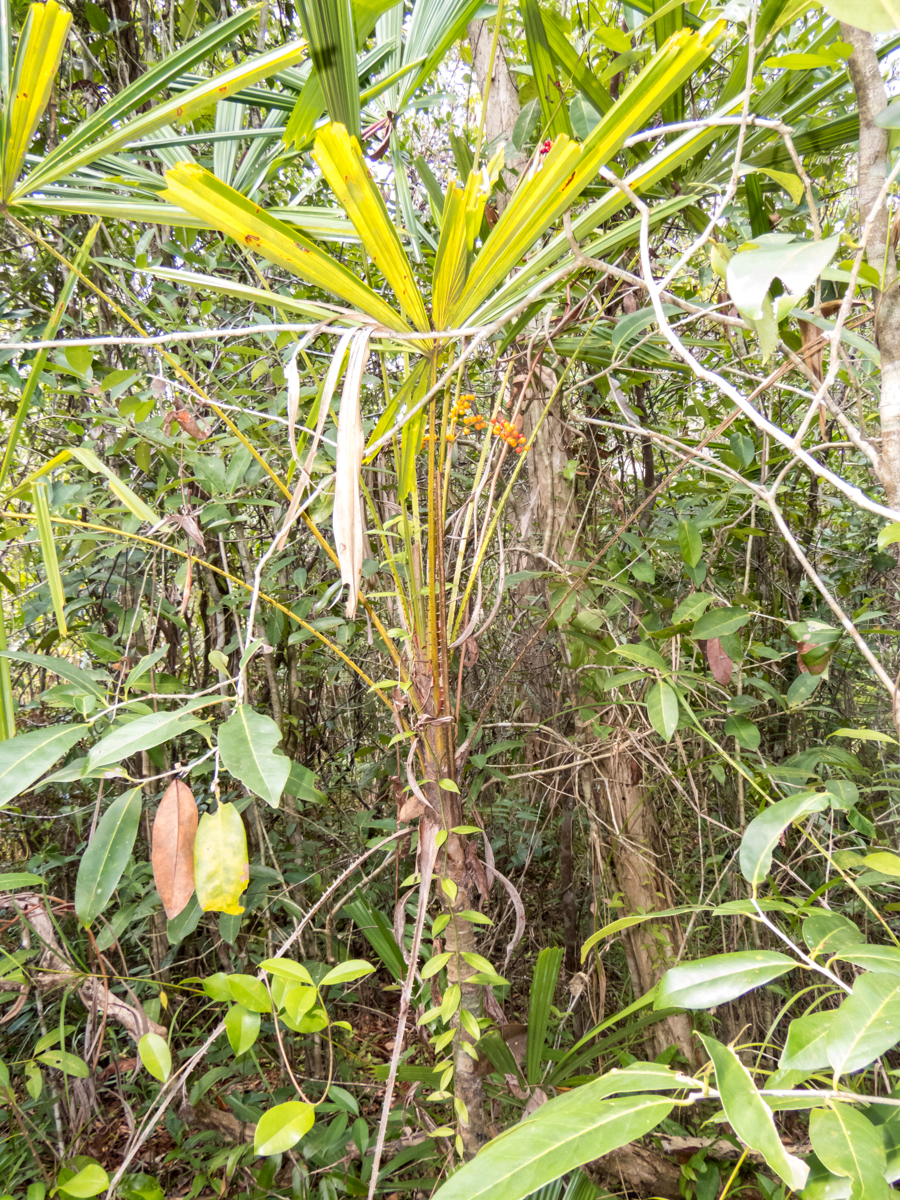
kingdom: Plantae
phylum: Tracheophyta
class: Liliopsida
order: Arecales
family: Arecaceae
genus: Licuala
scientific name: Licuala spinosa
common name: Mangrove fan palm
